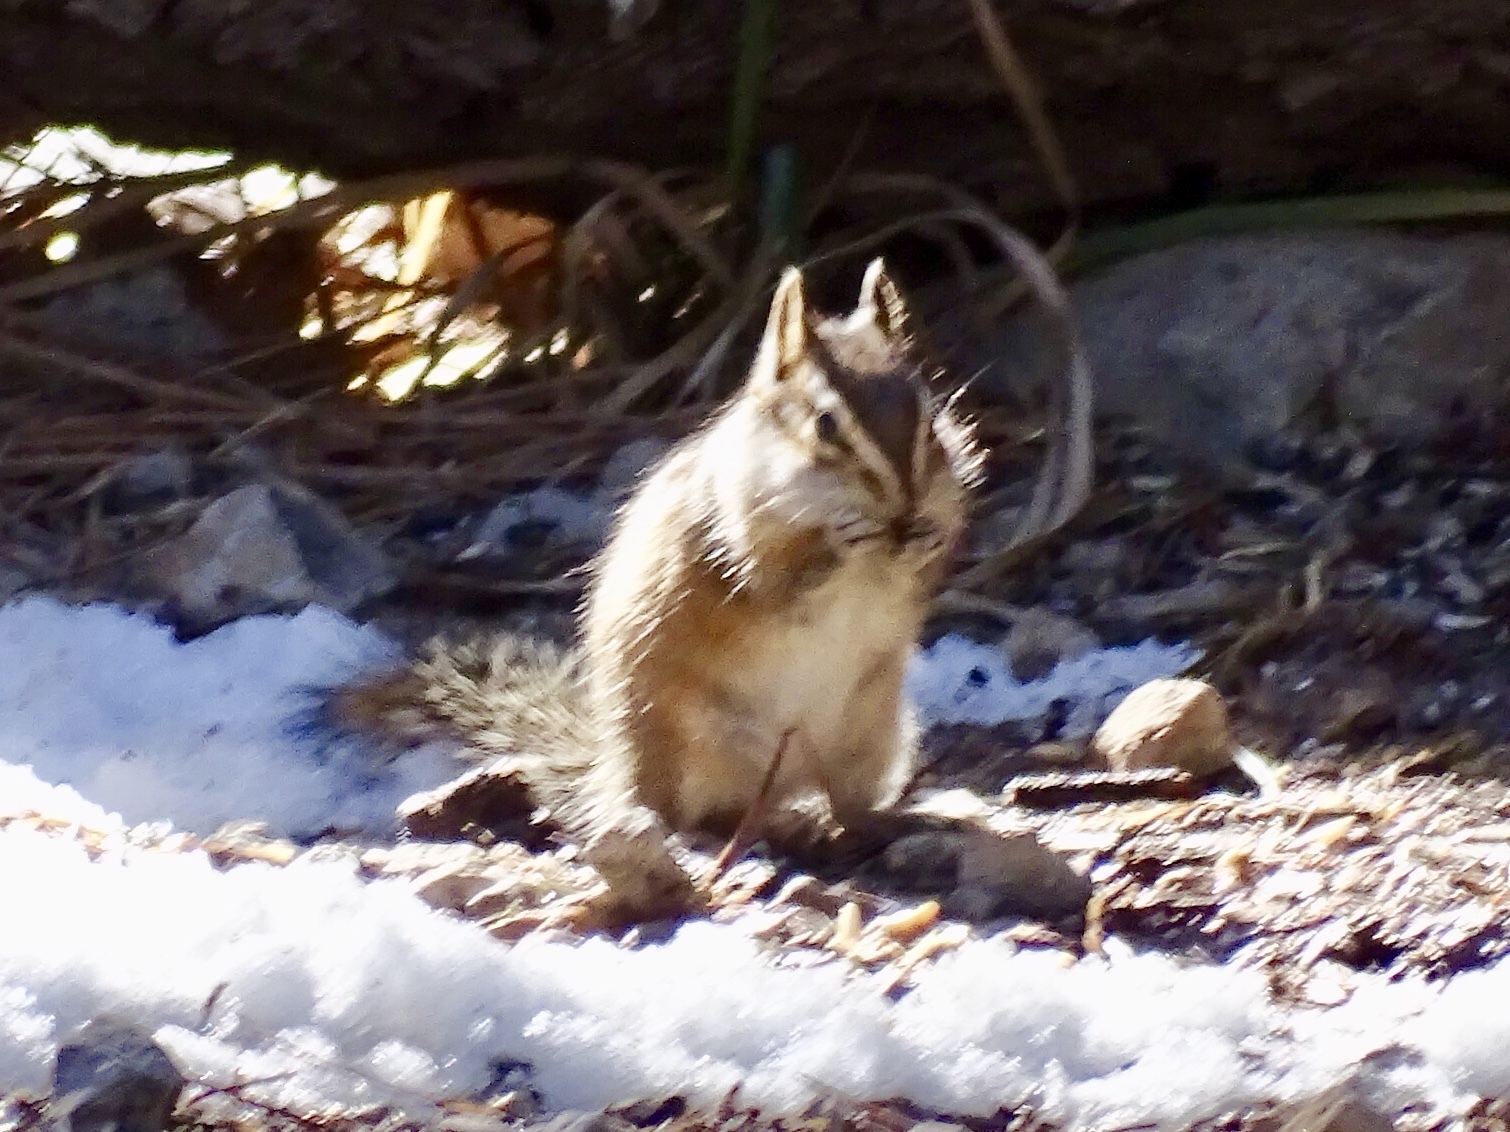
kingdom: Animalia
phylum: Chordata
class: Mammalia
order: Rodentia
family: Sciuridae
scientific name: Sciuridae
